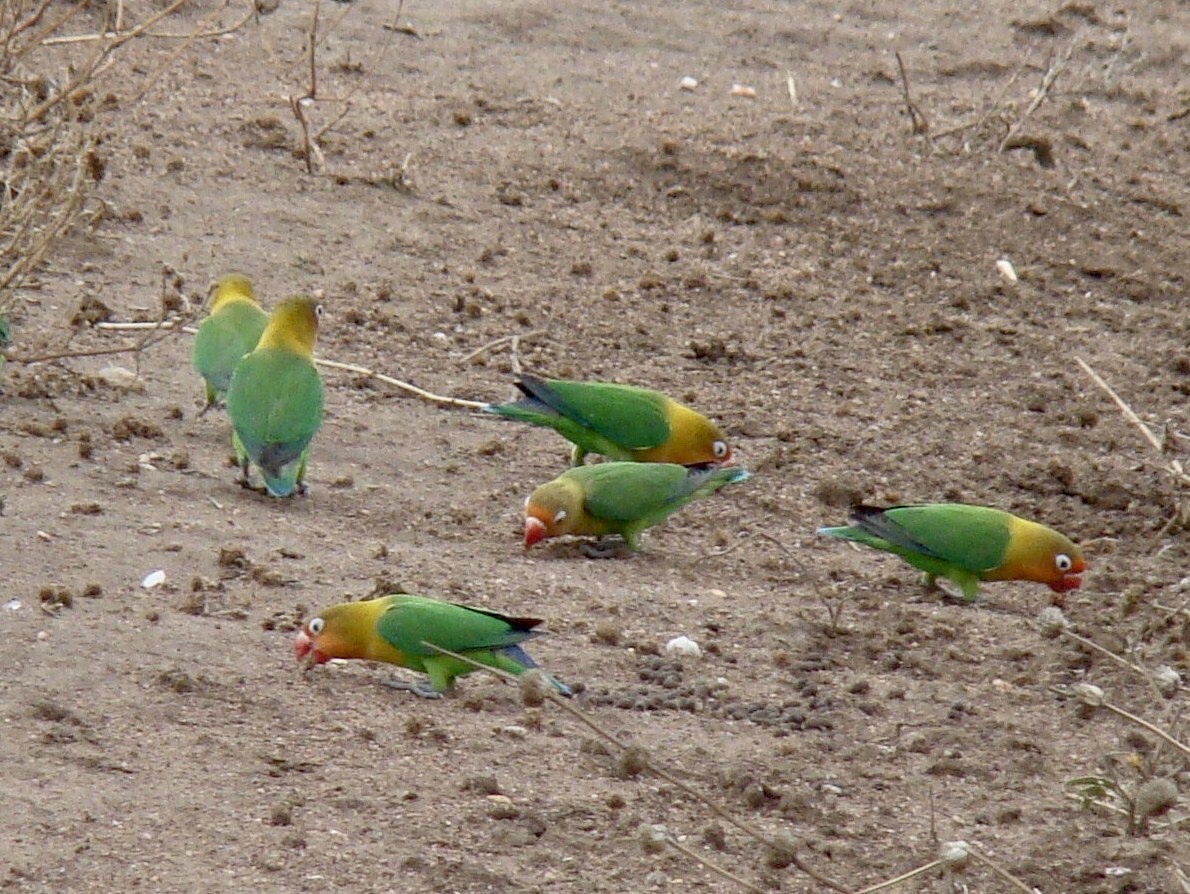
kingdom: Animalia
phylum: Chordata
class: Aves
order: Psittaciformes
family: Psittacidae
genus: Agapornis
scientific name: Agapornis fischeri
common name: Fischer's lovebird
